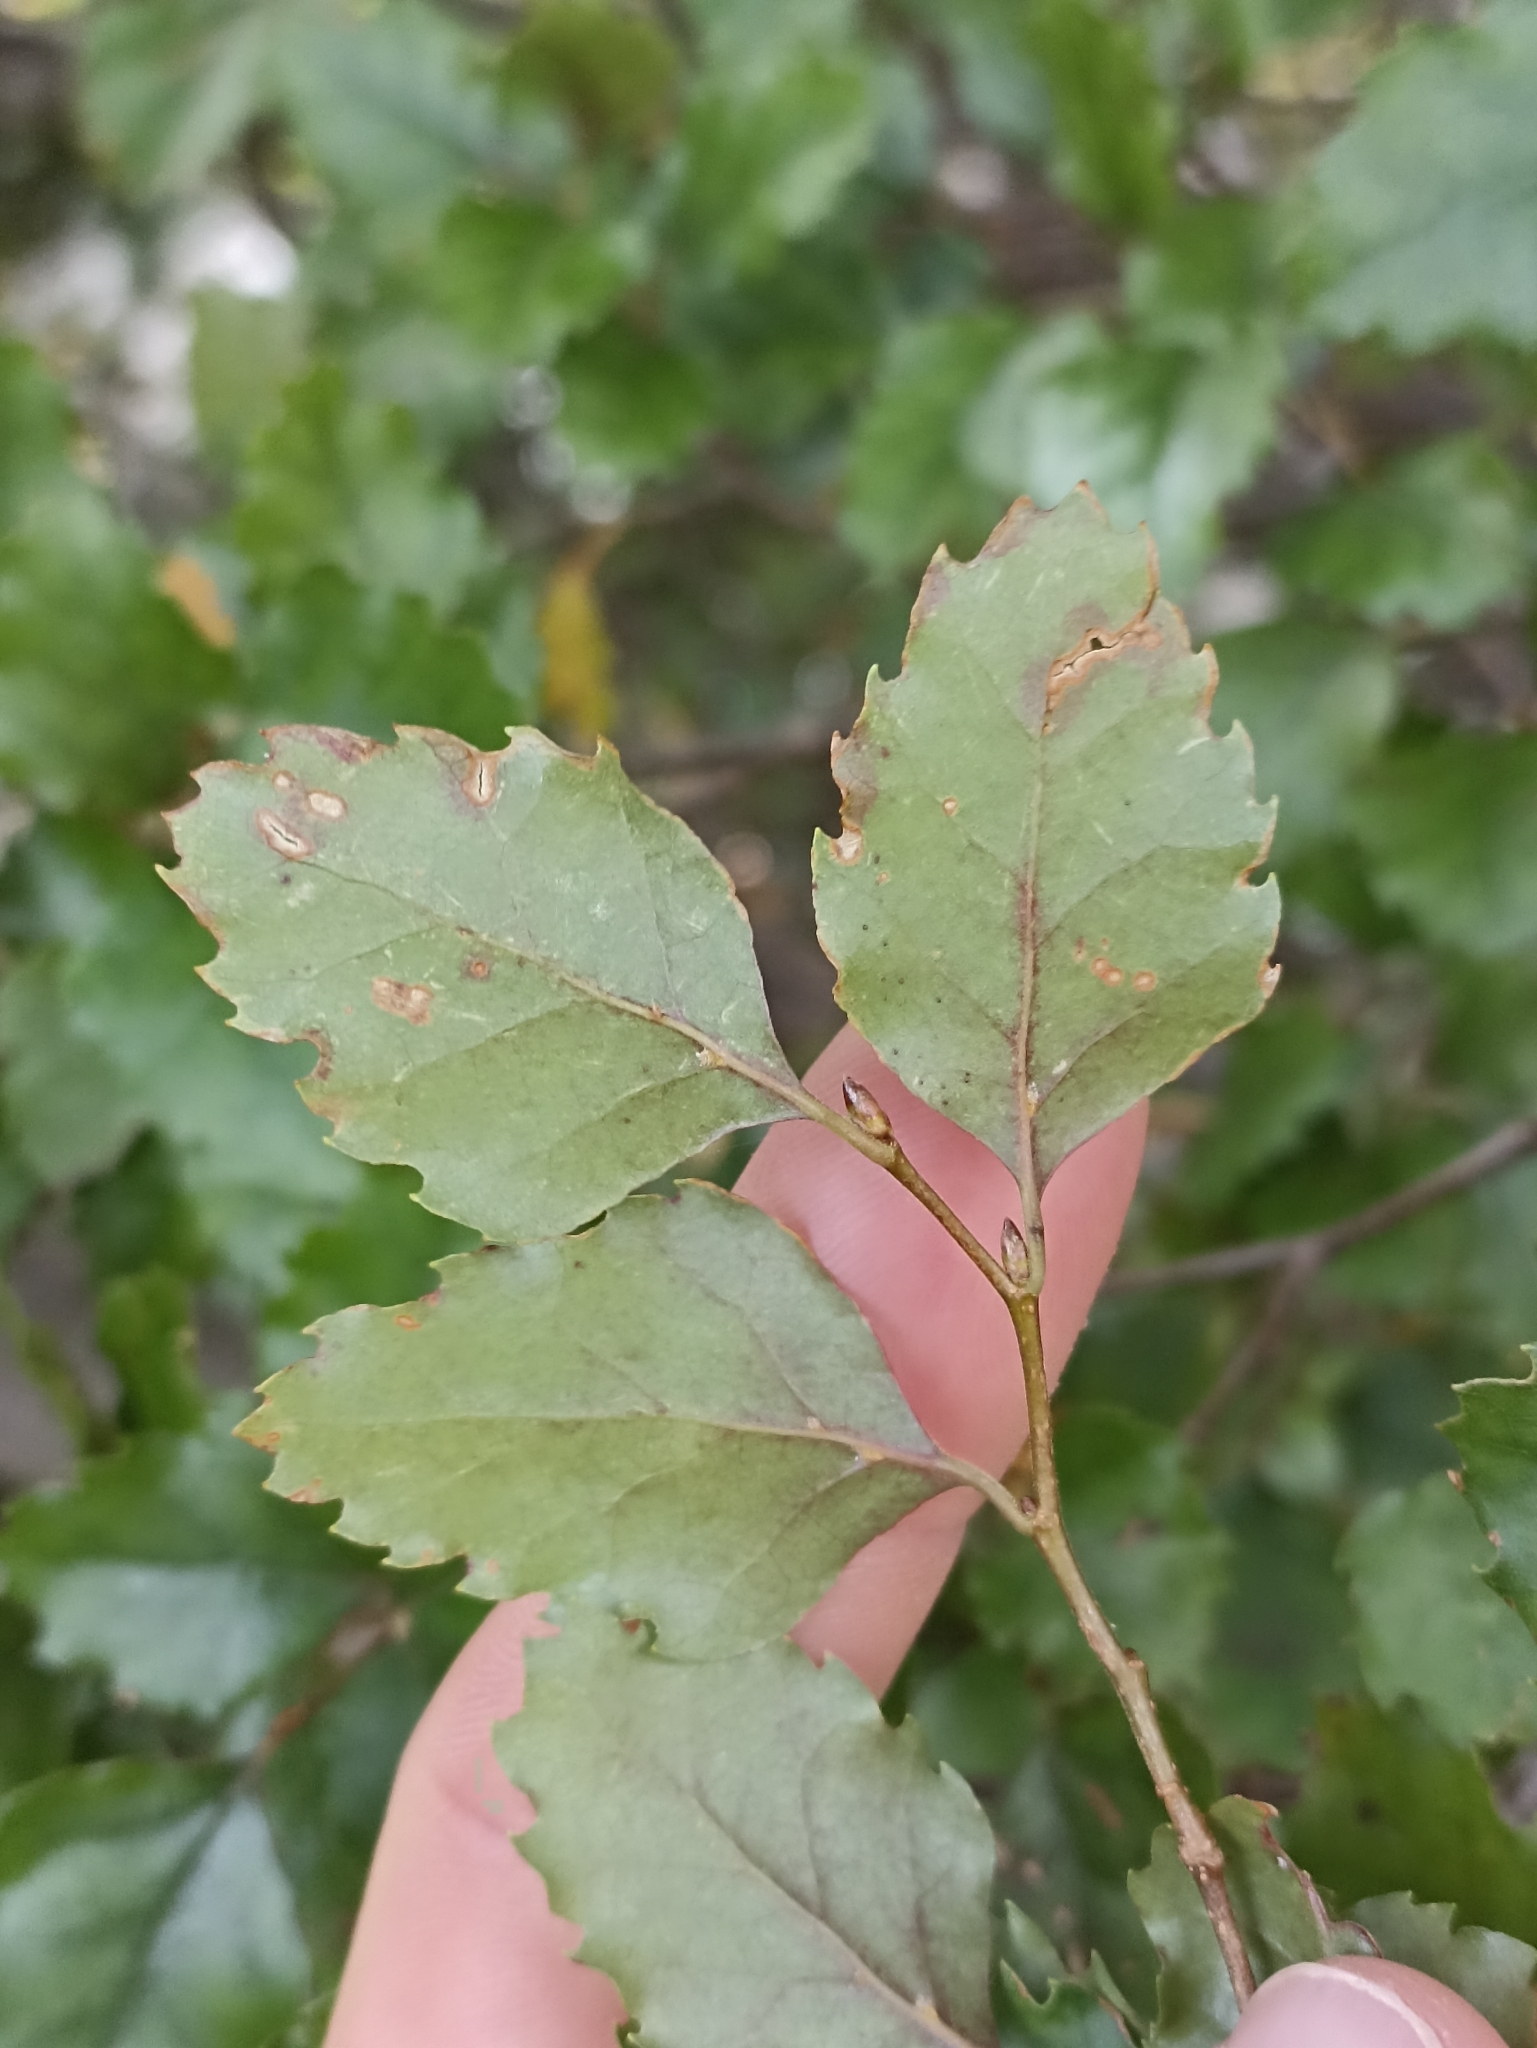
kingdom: Plantae
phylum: Tracheophyta
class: Magnoliopsida
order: Fagales
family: Nothofagaceae
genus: Nothofagus
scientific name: Nothofagus fusca
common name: Red beech
